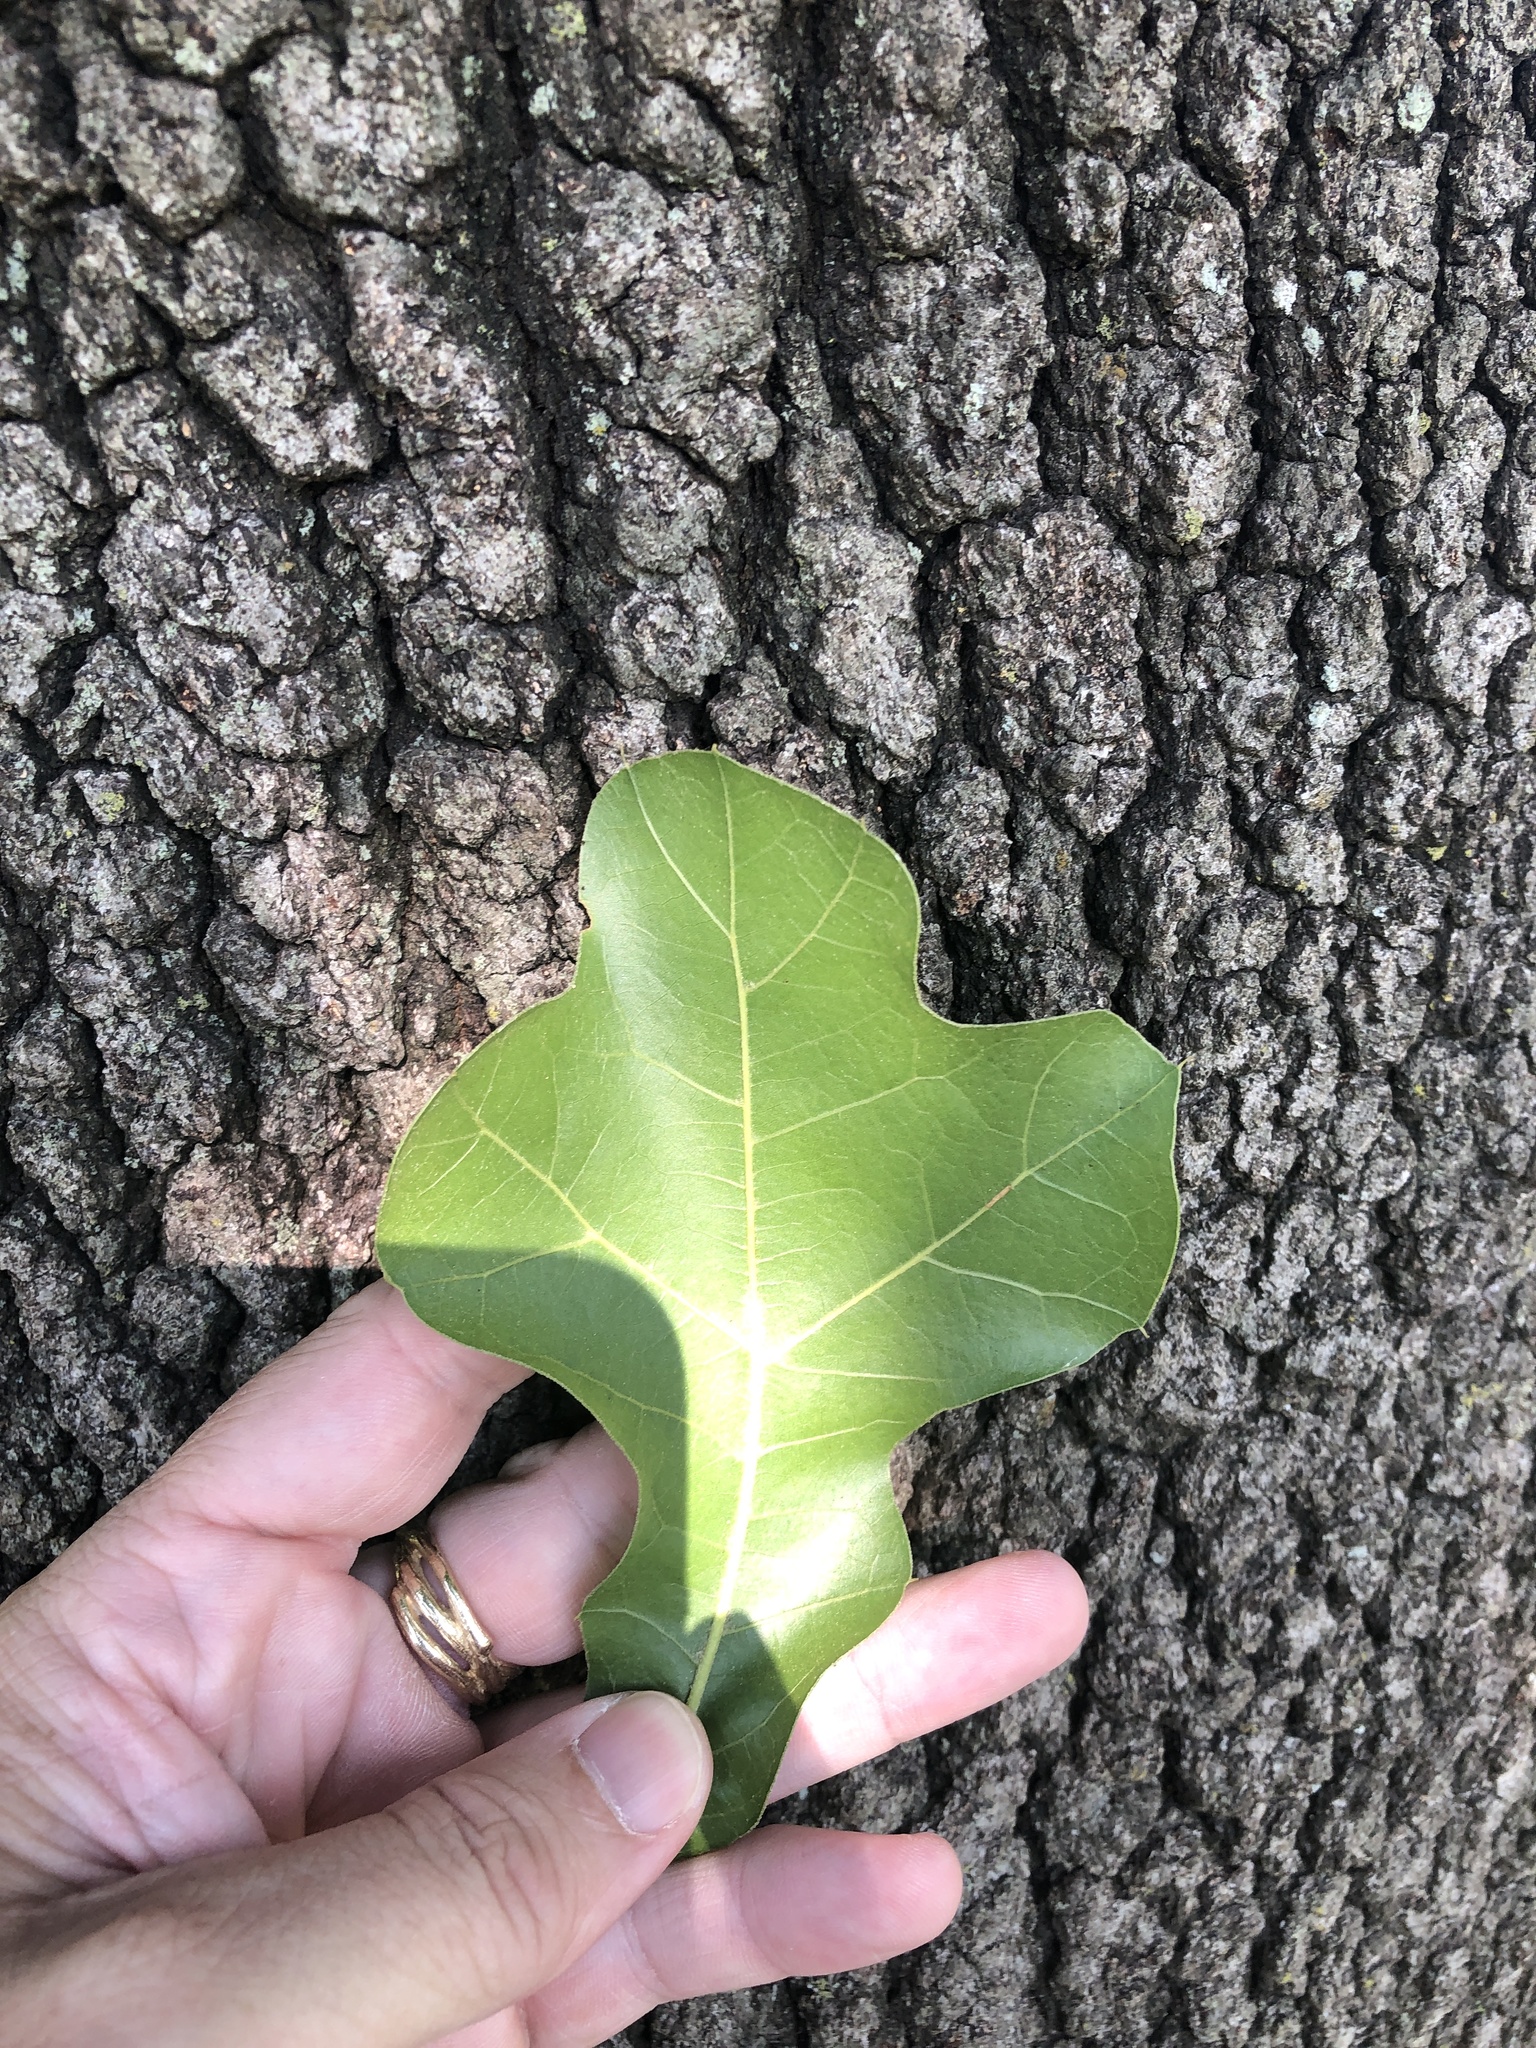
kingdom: Plantae
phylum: Tracheophyta
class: Magnoliopsida
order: Fagales
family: Fagaceae
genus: Quercus
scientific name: Quercus marilandica
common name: Blackjack oak
